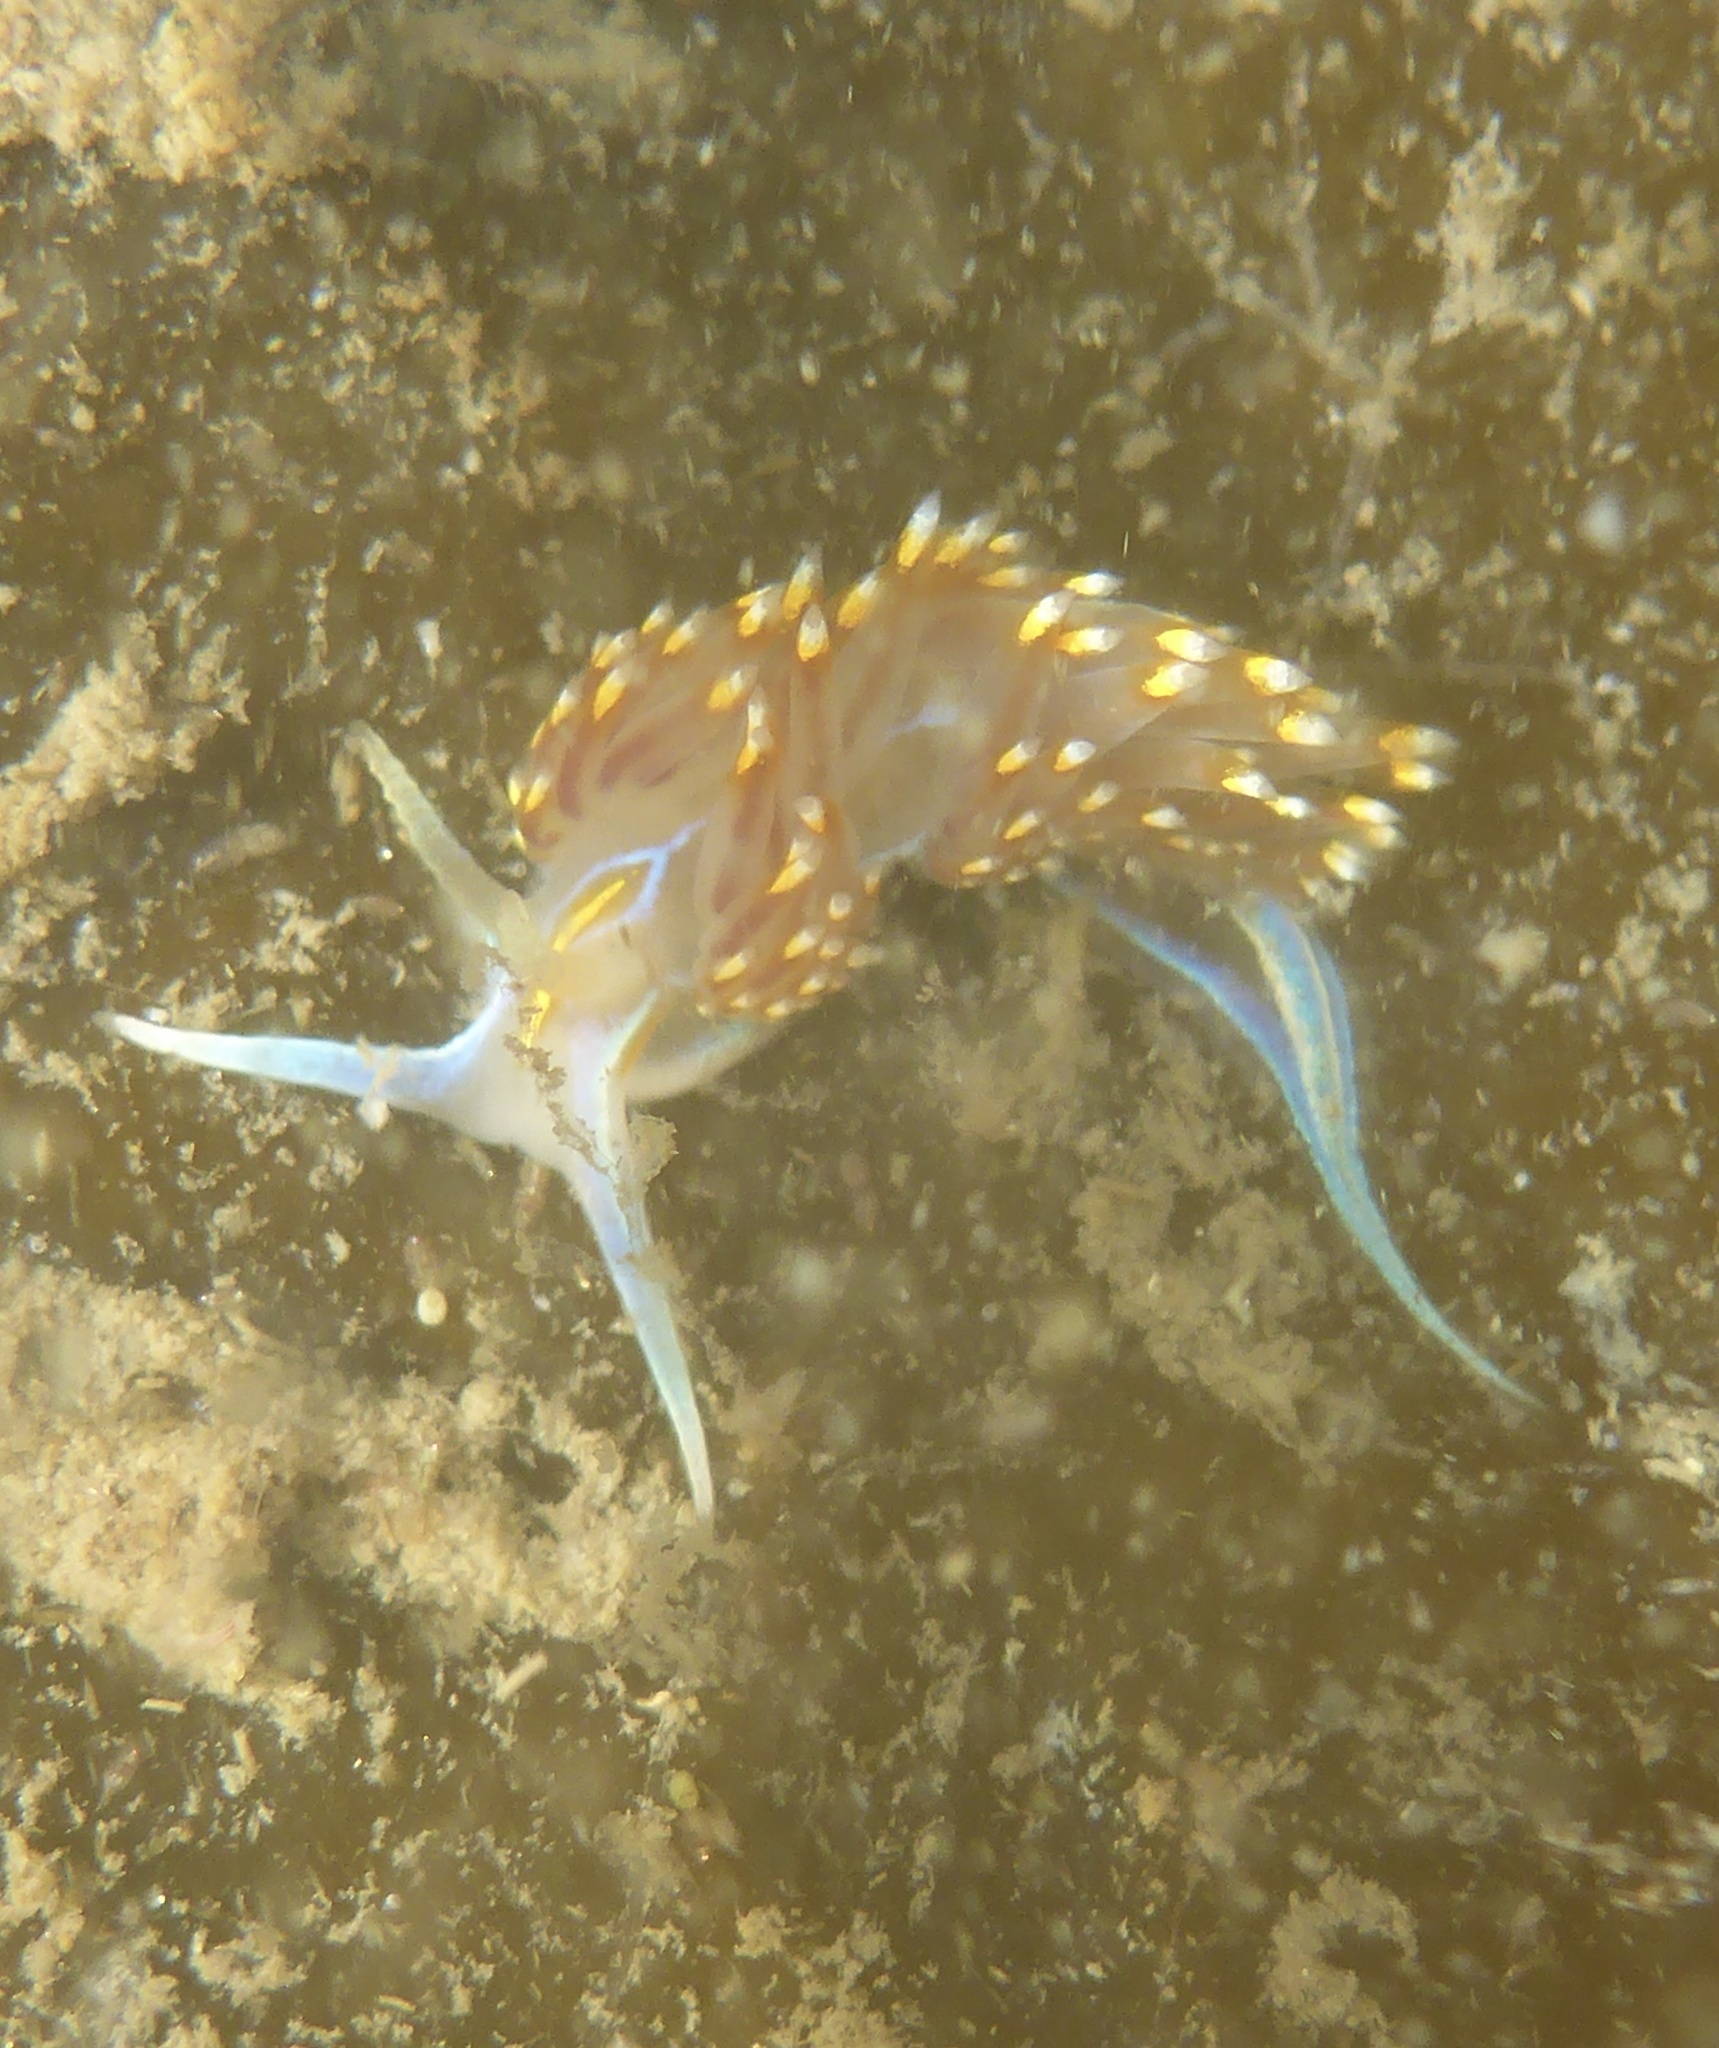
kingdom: Animalia
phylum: Mollusca
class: Gastropoda
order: Nudibranchia
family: Myrrhinidae
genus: Hermissenda
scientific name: Hermissenda opalescens
